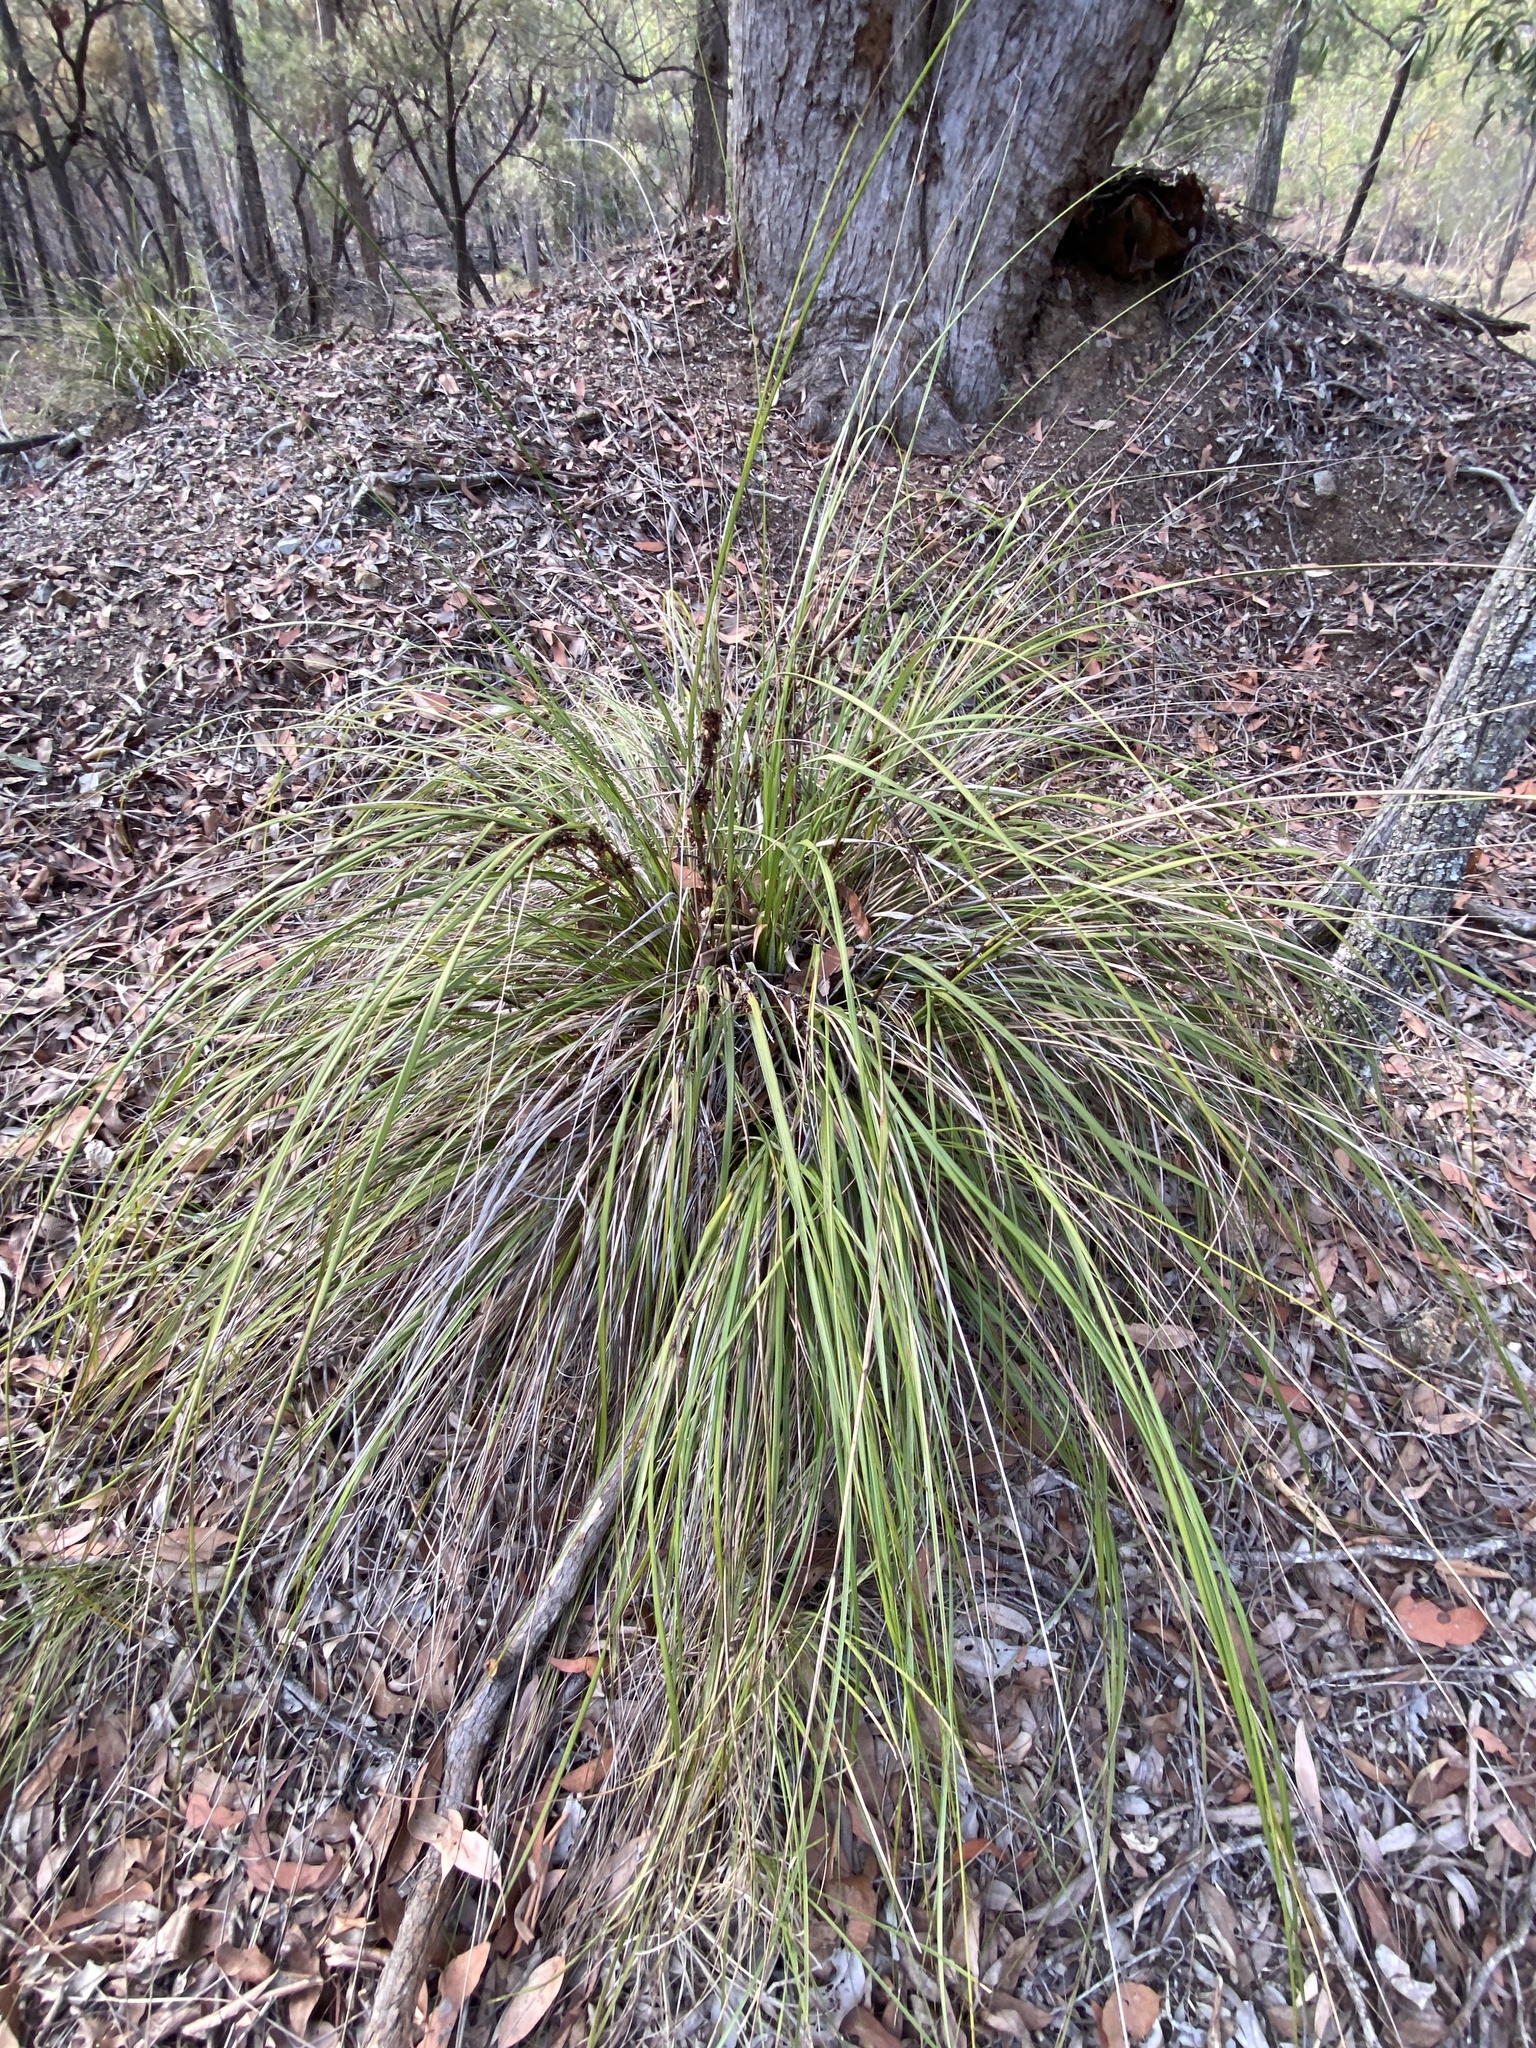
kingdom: Plantae
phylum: Tracheophyta
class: Liliopsida
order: Poales
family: Cyperaceae
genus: Gahnia
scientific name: Gahnia aspera
